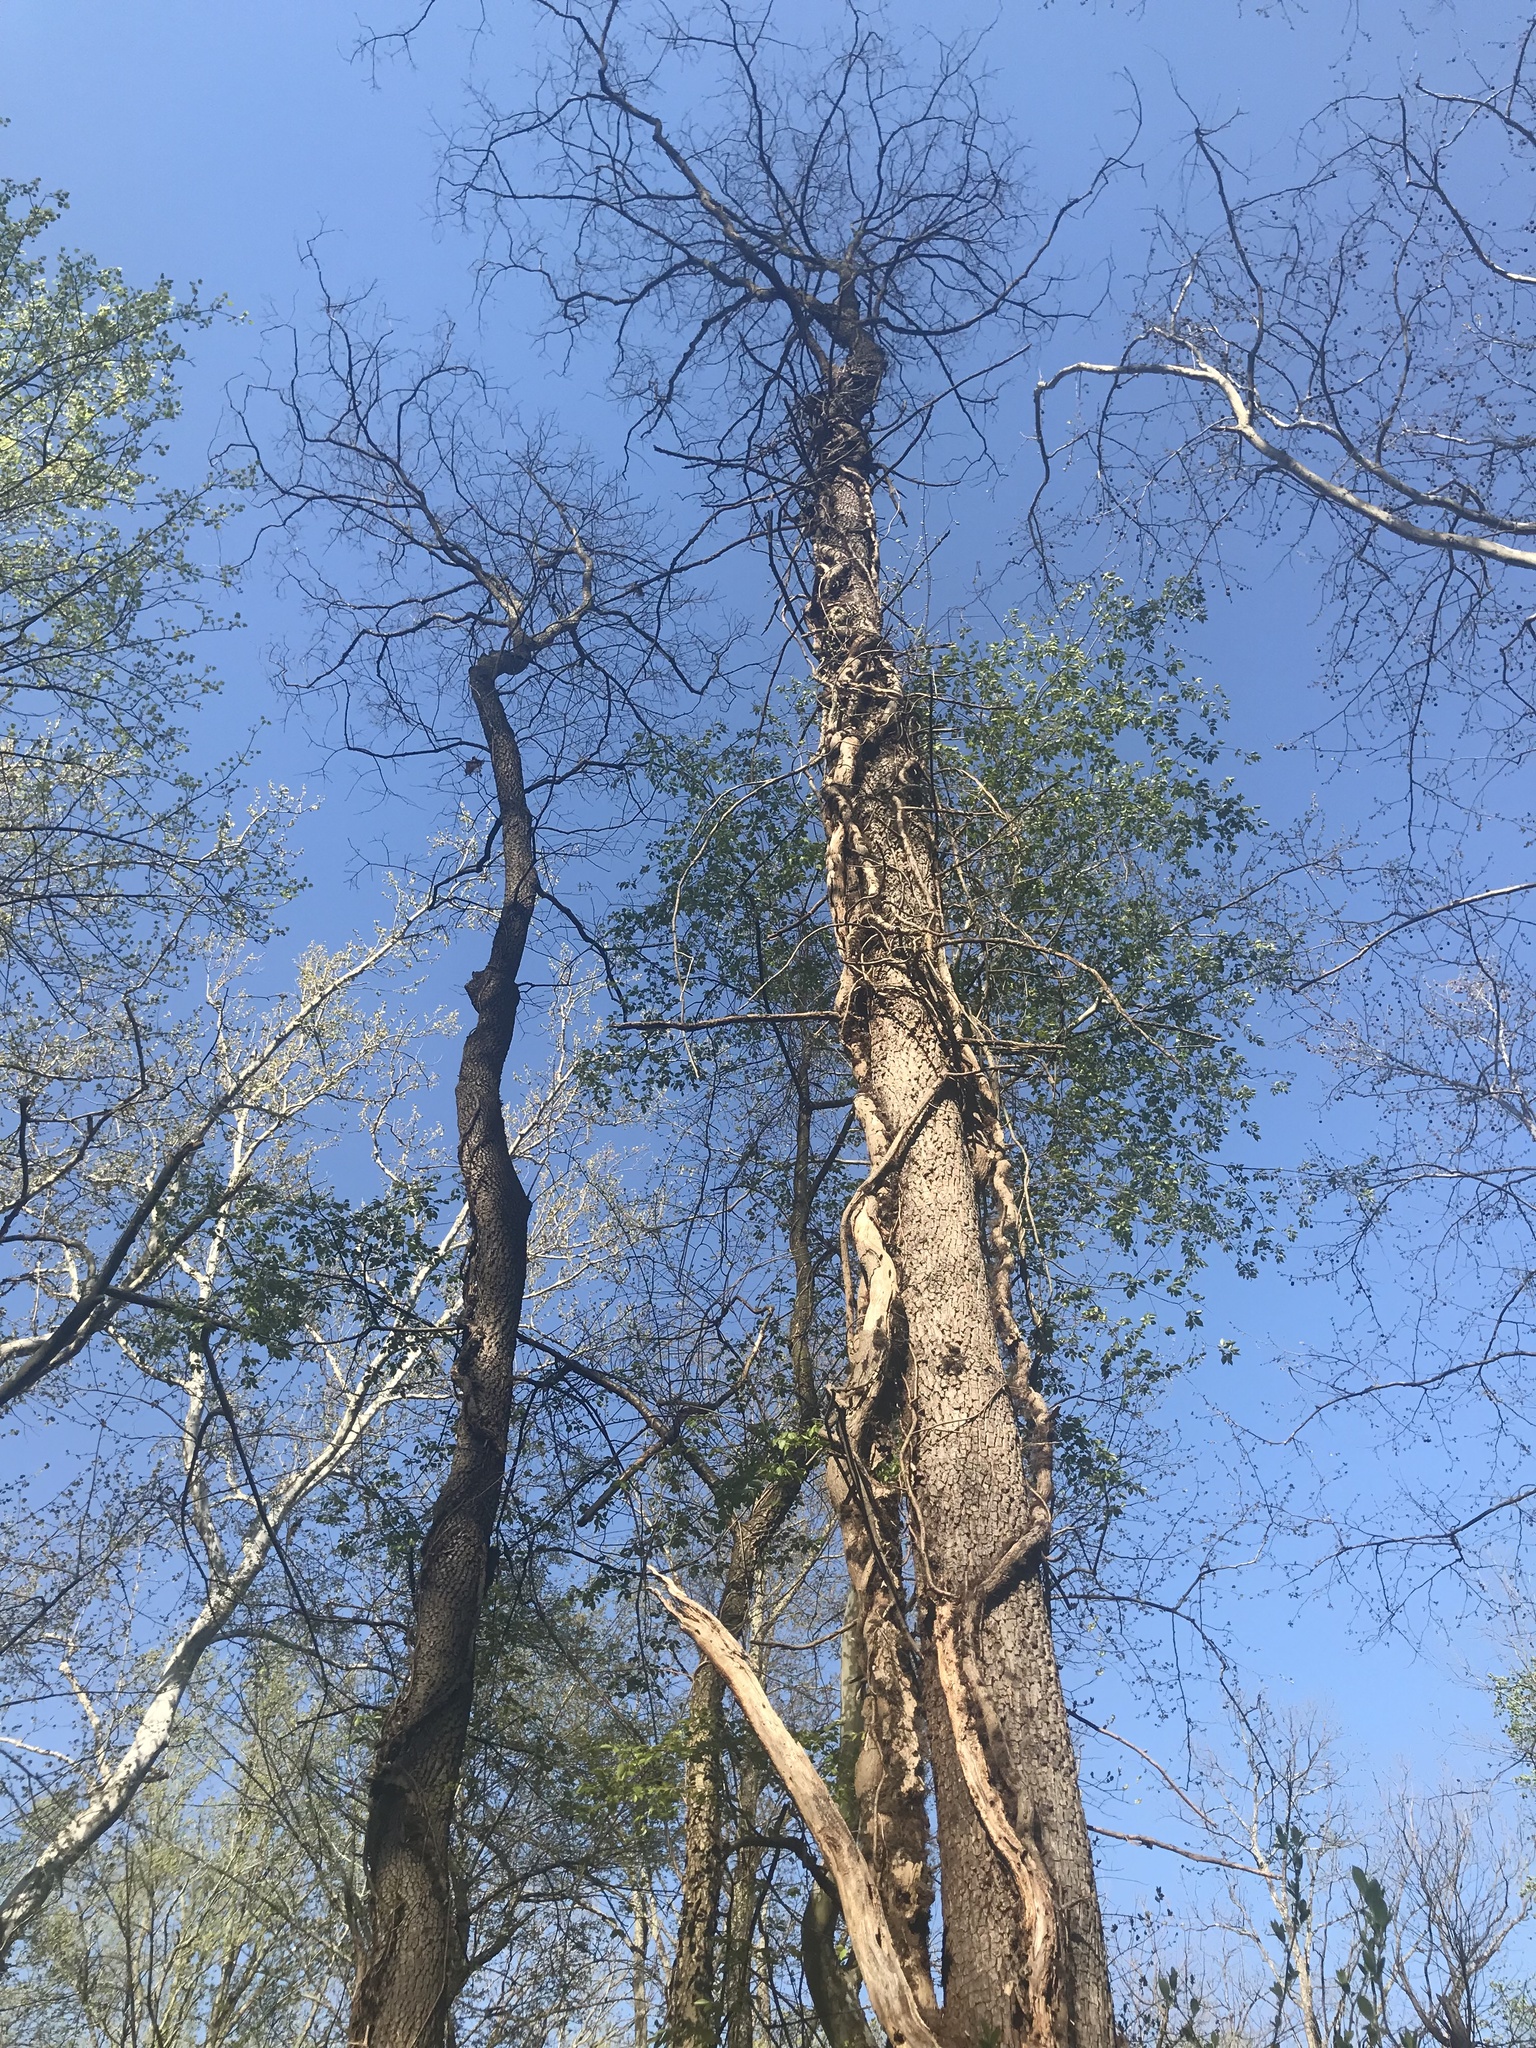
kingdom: Plantae
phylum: Tracheophyta
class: Magnoliopsida
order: Ericales
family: Ebenaceae
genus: Diospyros
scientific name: Diospyros virginiana
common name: Persimmon
